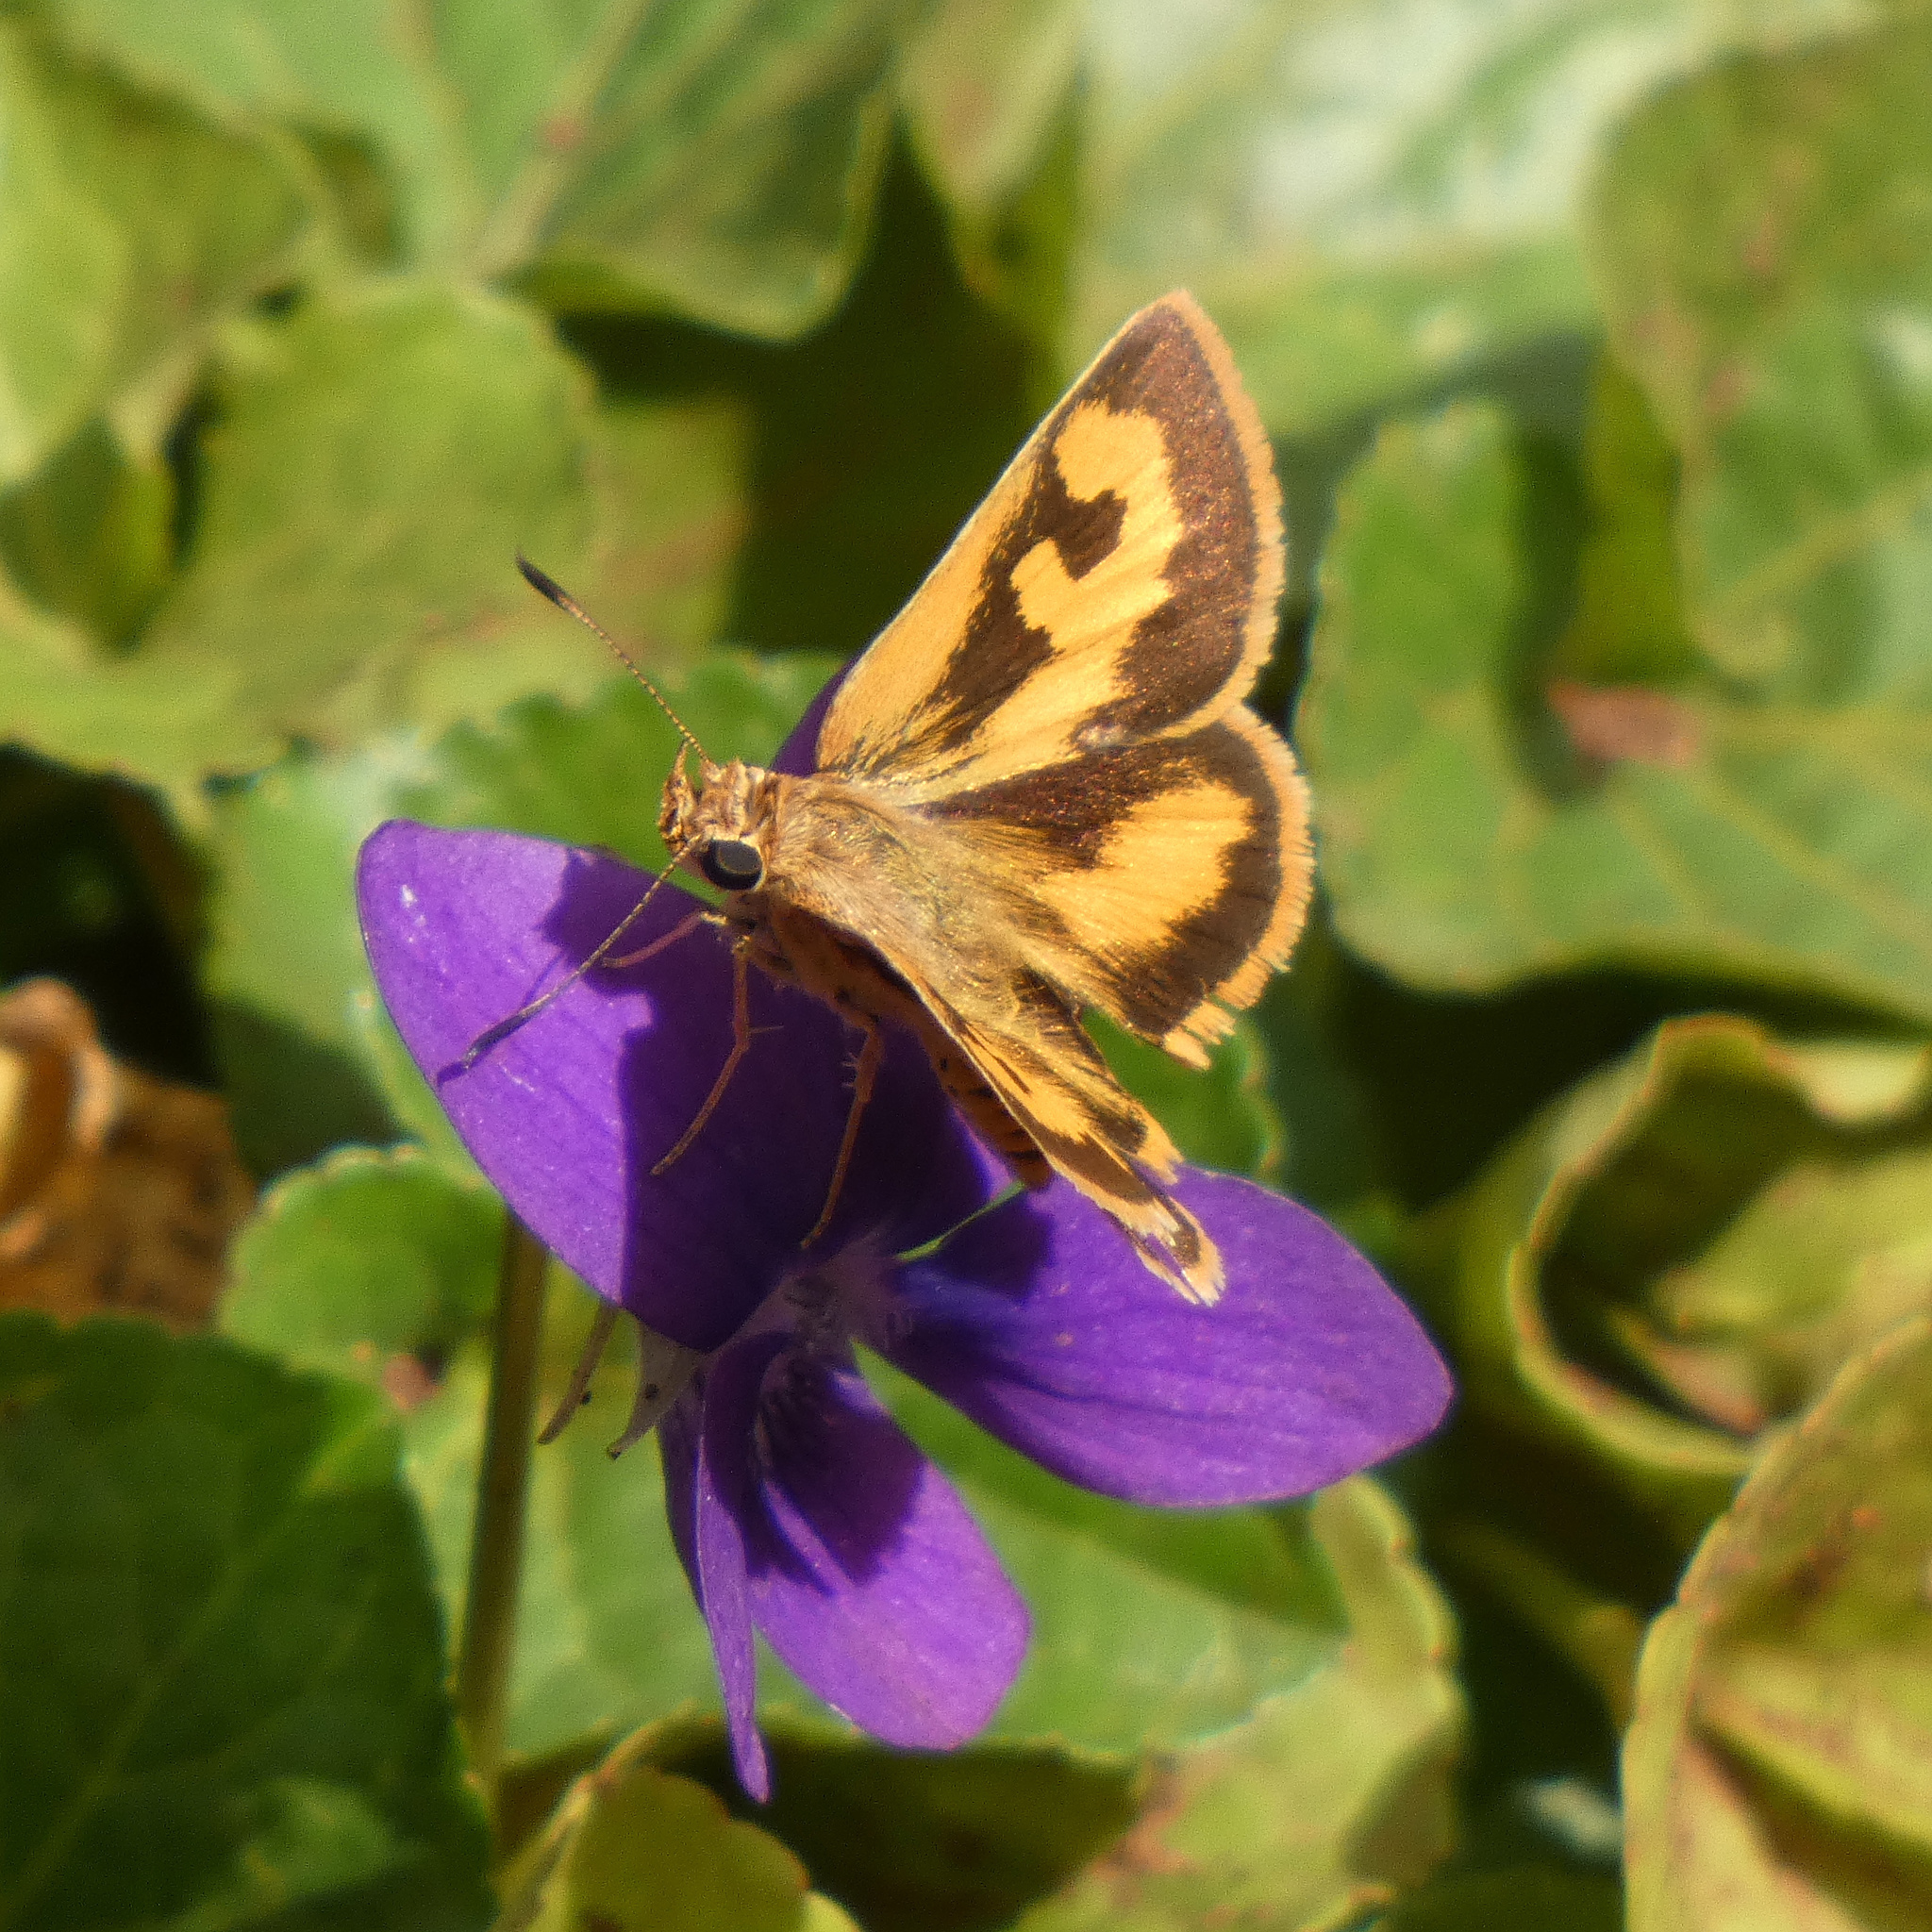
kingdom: Animalia
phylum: Arthropoda
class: Insecta
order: Lepidoptera
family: Hesperiidae
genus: Acada
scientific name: Acada biseriatus
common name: Axehead orange
